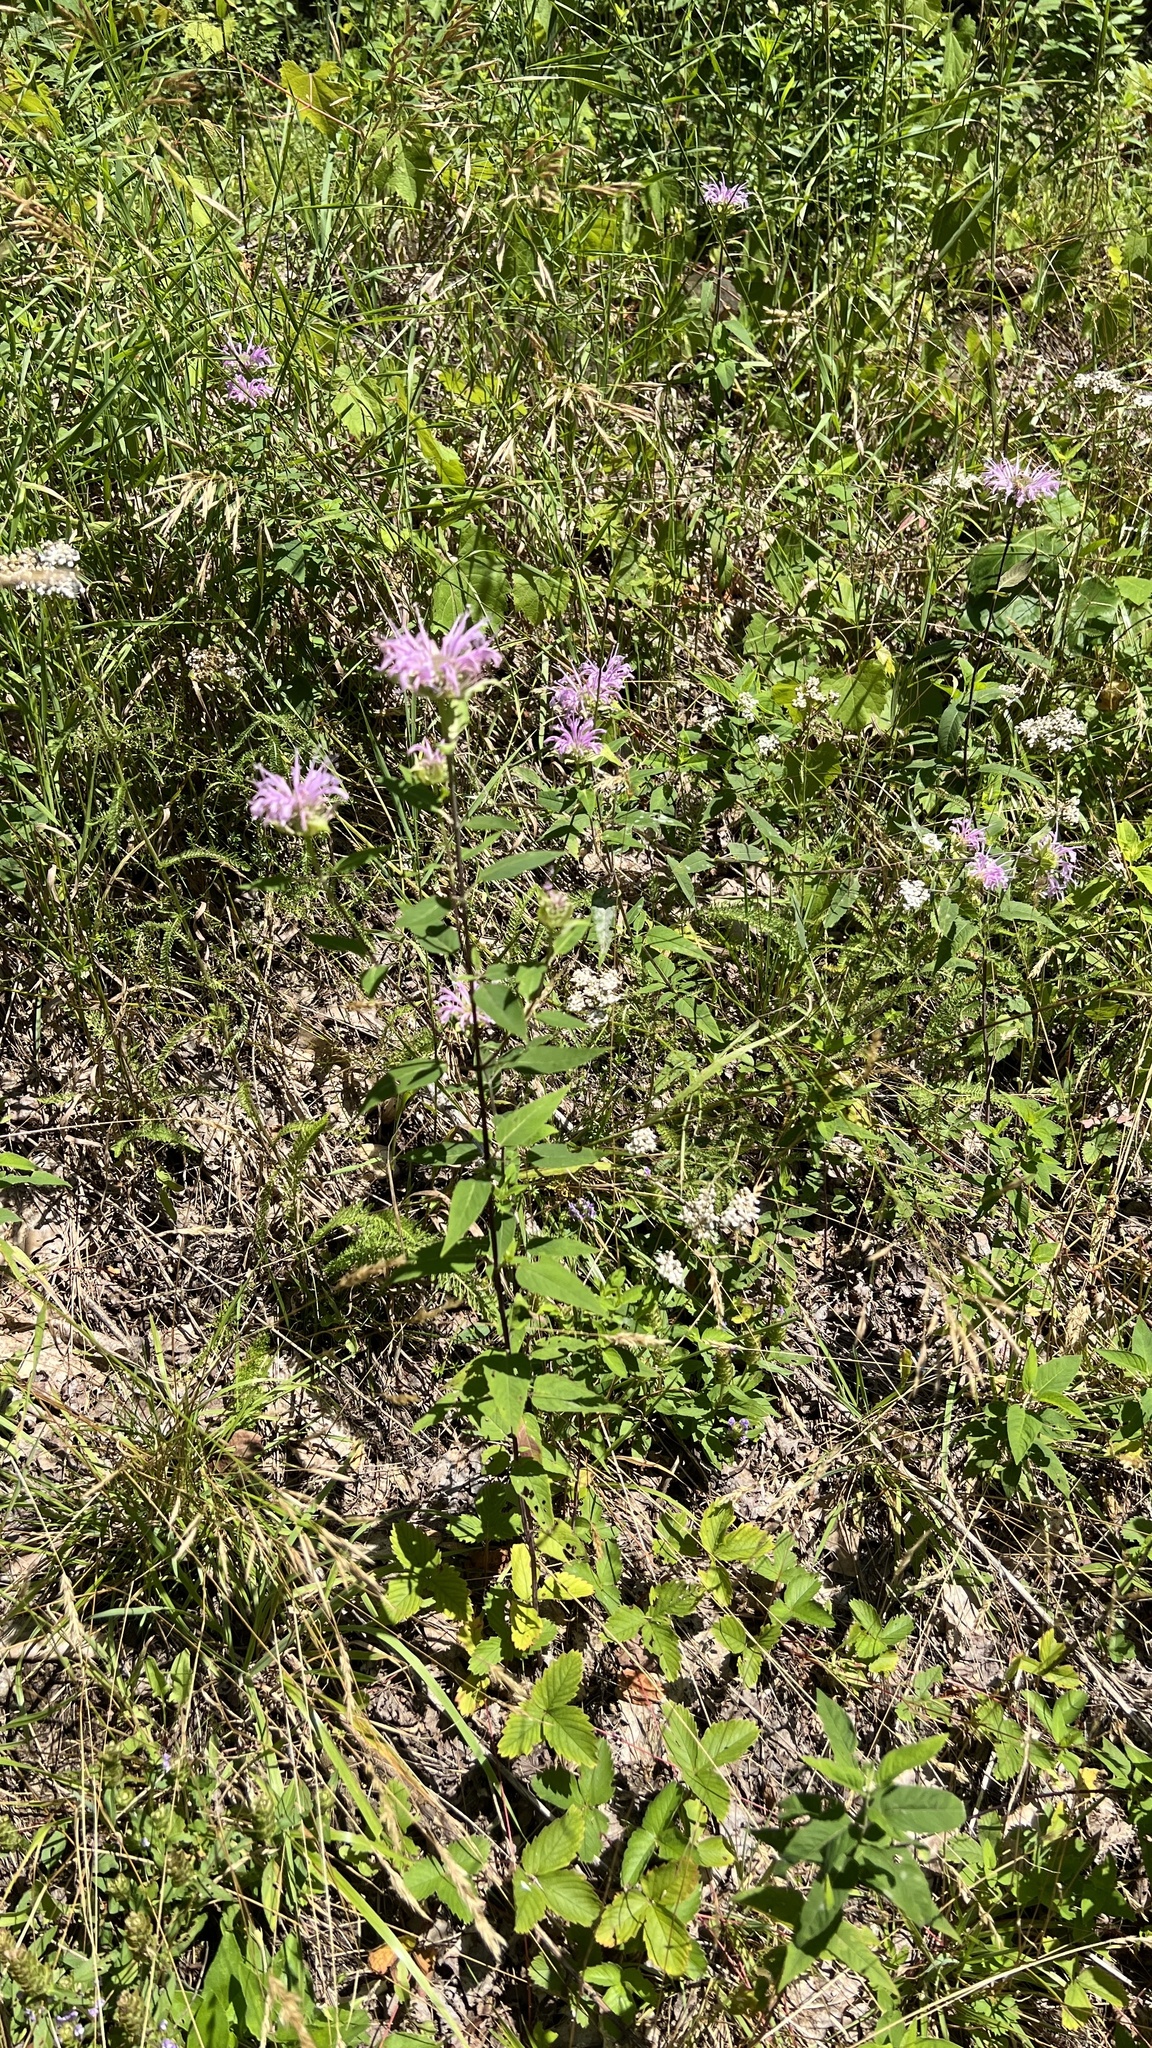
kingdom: Plantae
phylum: Tracheophyta
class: Magnoliopsida
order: Lamiales
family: Lamiaceae
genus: Monarda
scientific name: Monarda fistulosa
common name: Purple beebalm
